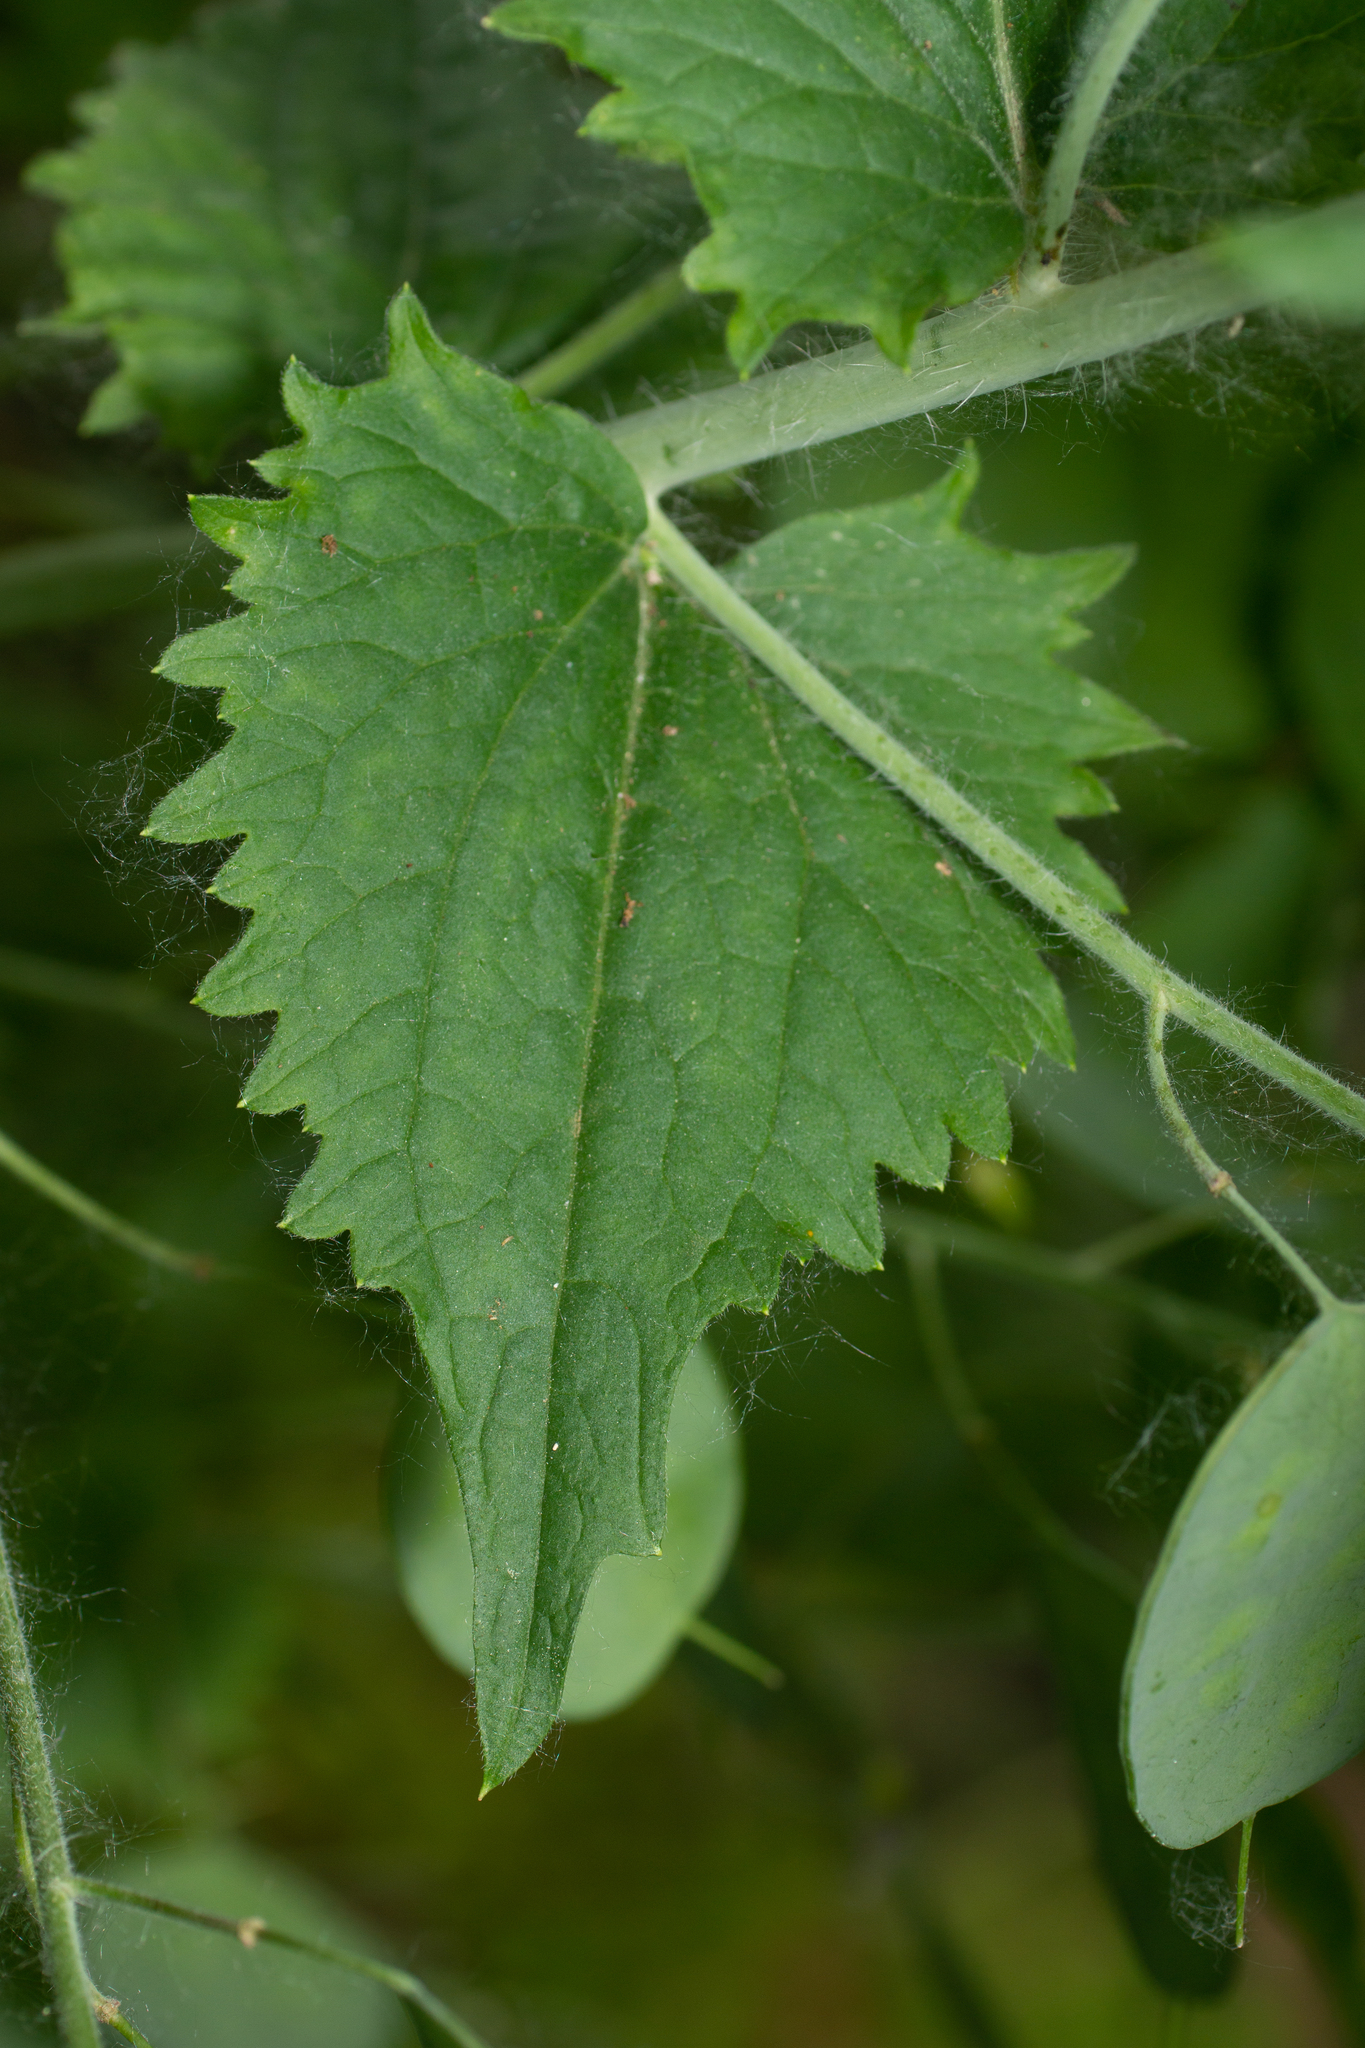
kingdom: Plantae
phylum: Tracheophyta
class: Magnoliopsida
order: Brassicales
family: Brassicaceae
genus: Lunaria
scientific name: Lunaria annua
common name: Honesty
